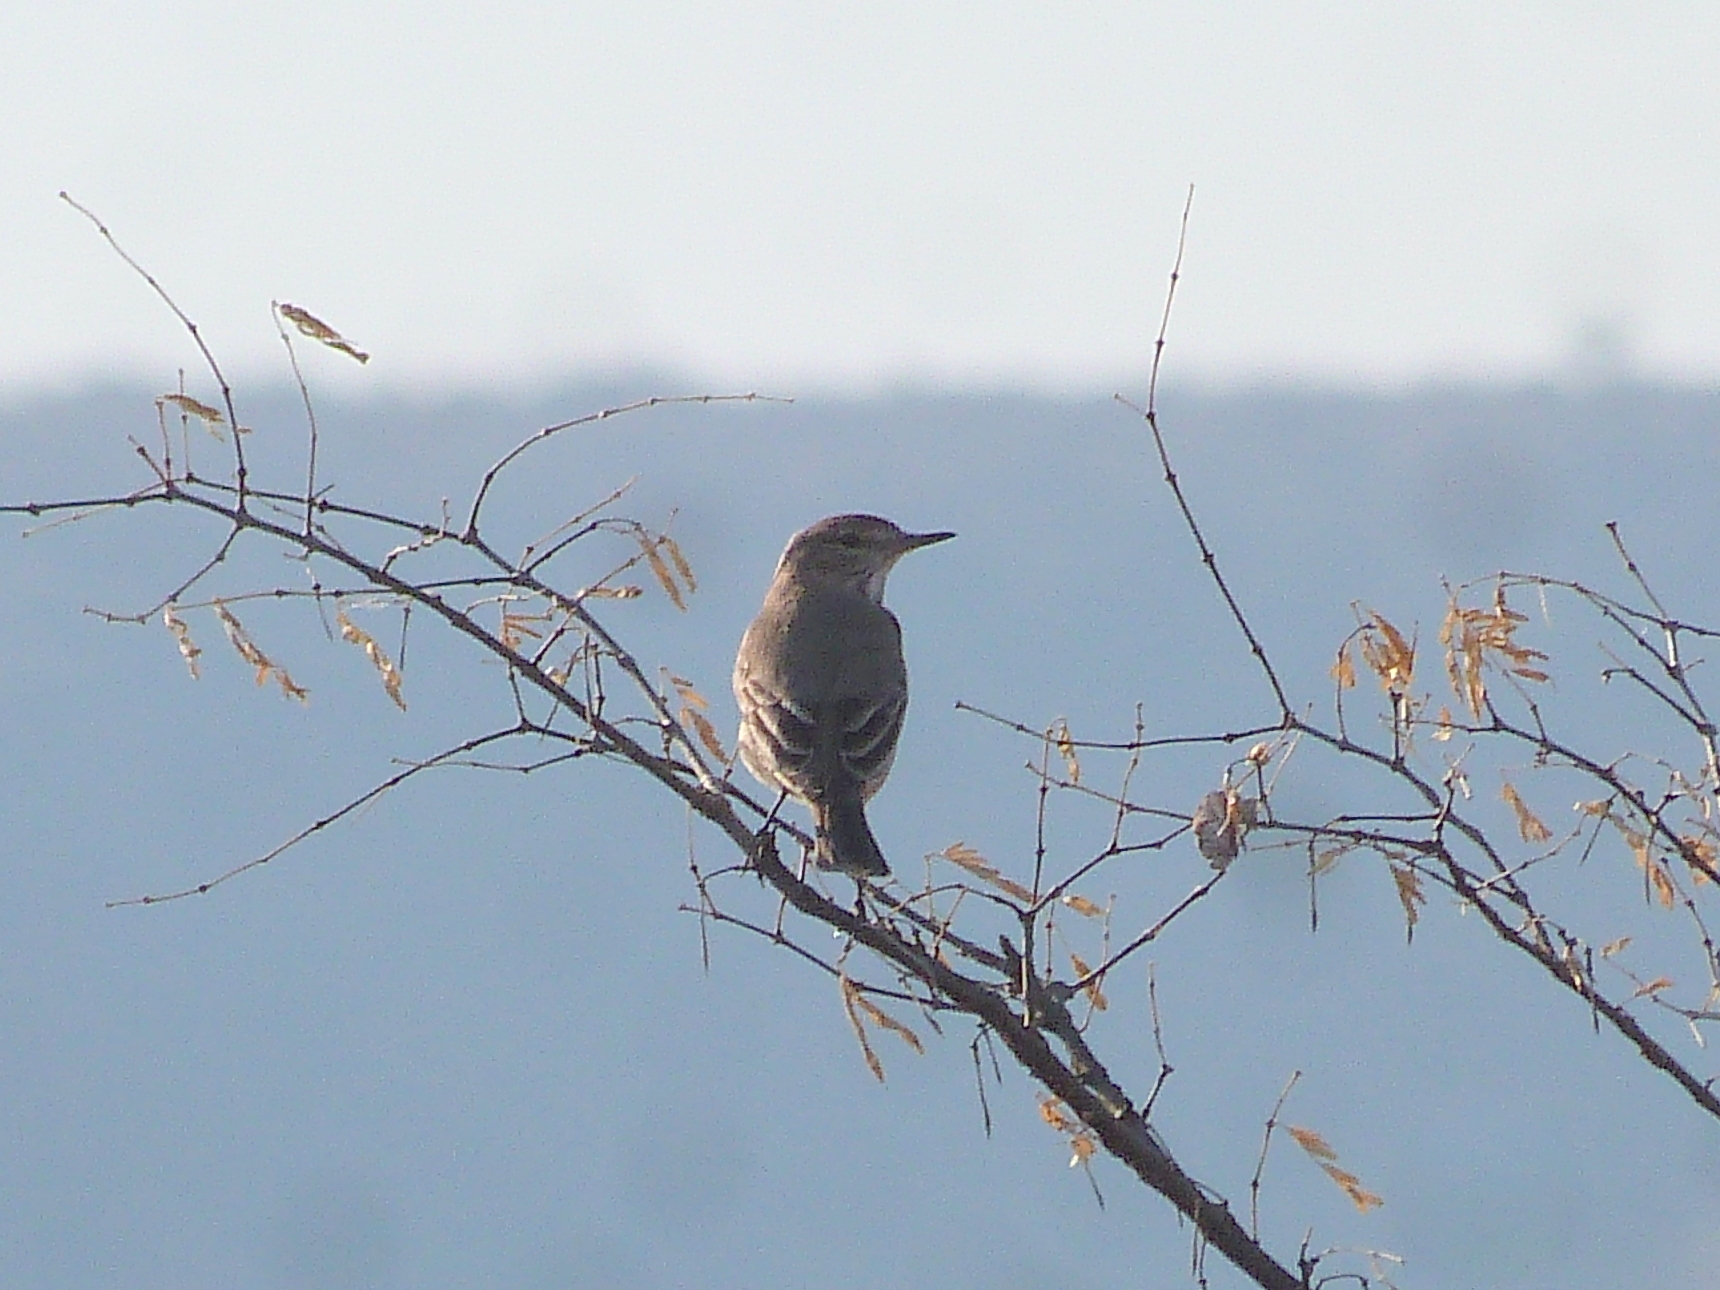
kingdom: Animalia
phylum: Chordata
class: Aves
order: Passeriformes
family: Tyrannidae
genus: Agriornis
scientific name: Agriornis murinus
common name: Lesser shrike-tyrant
